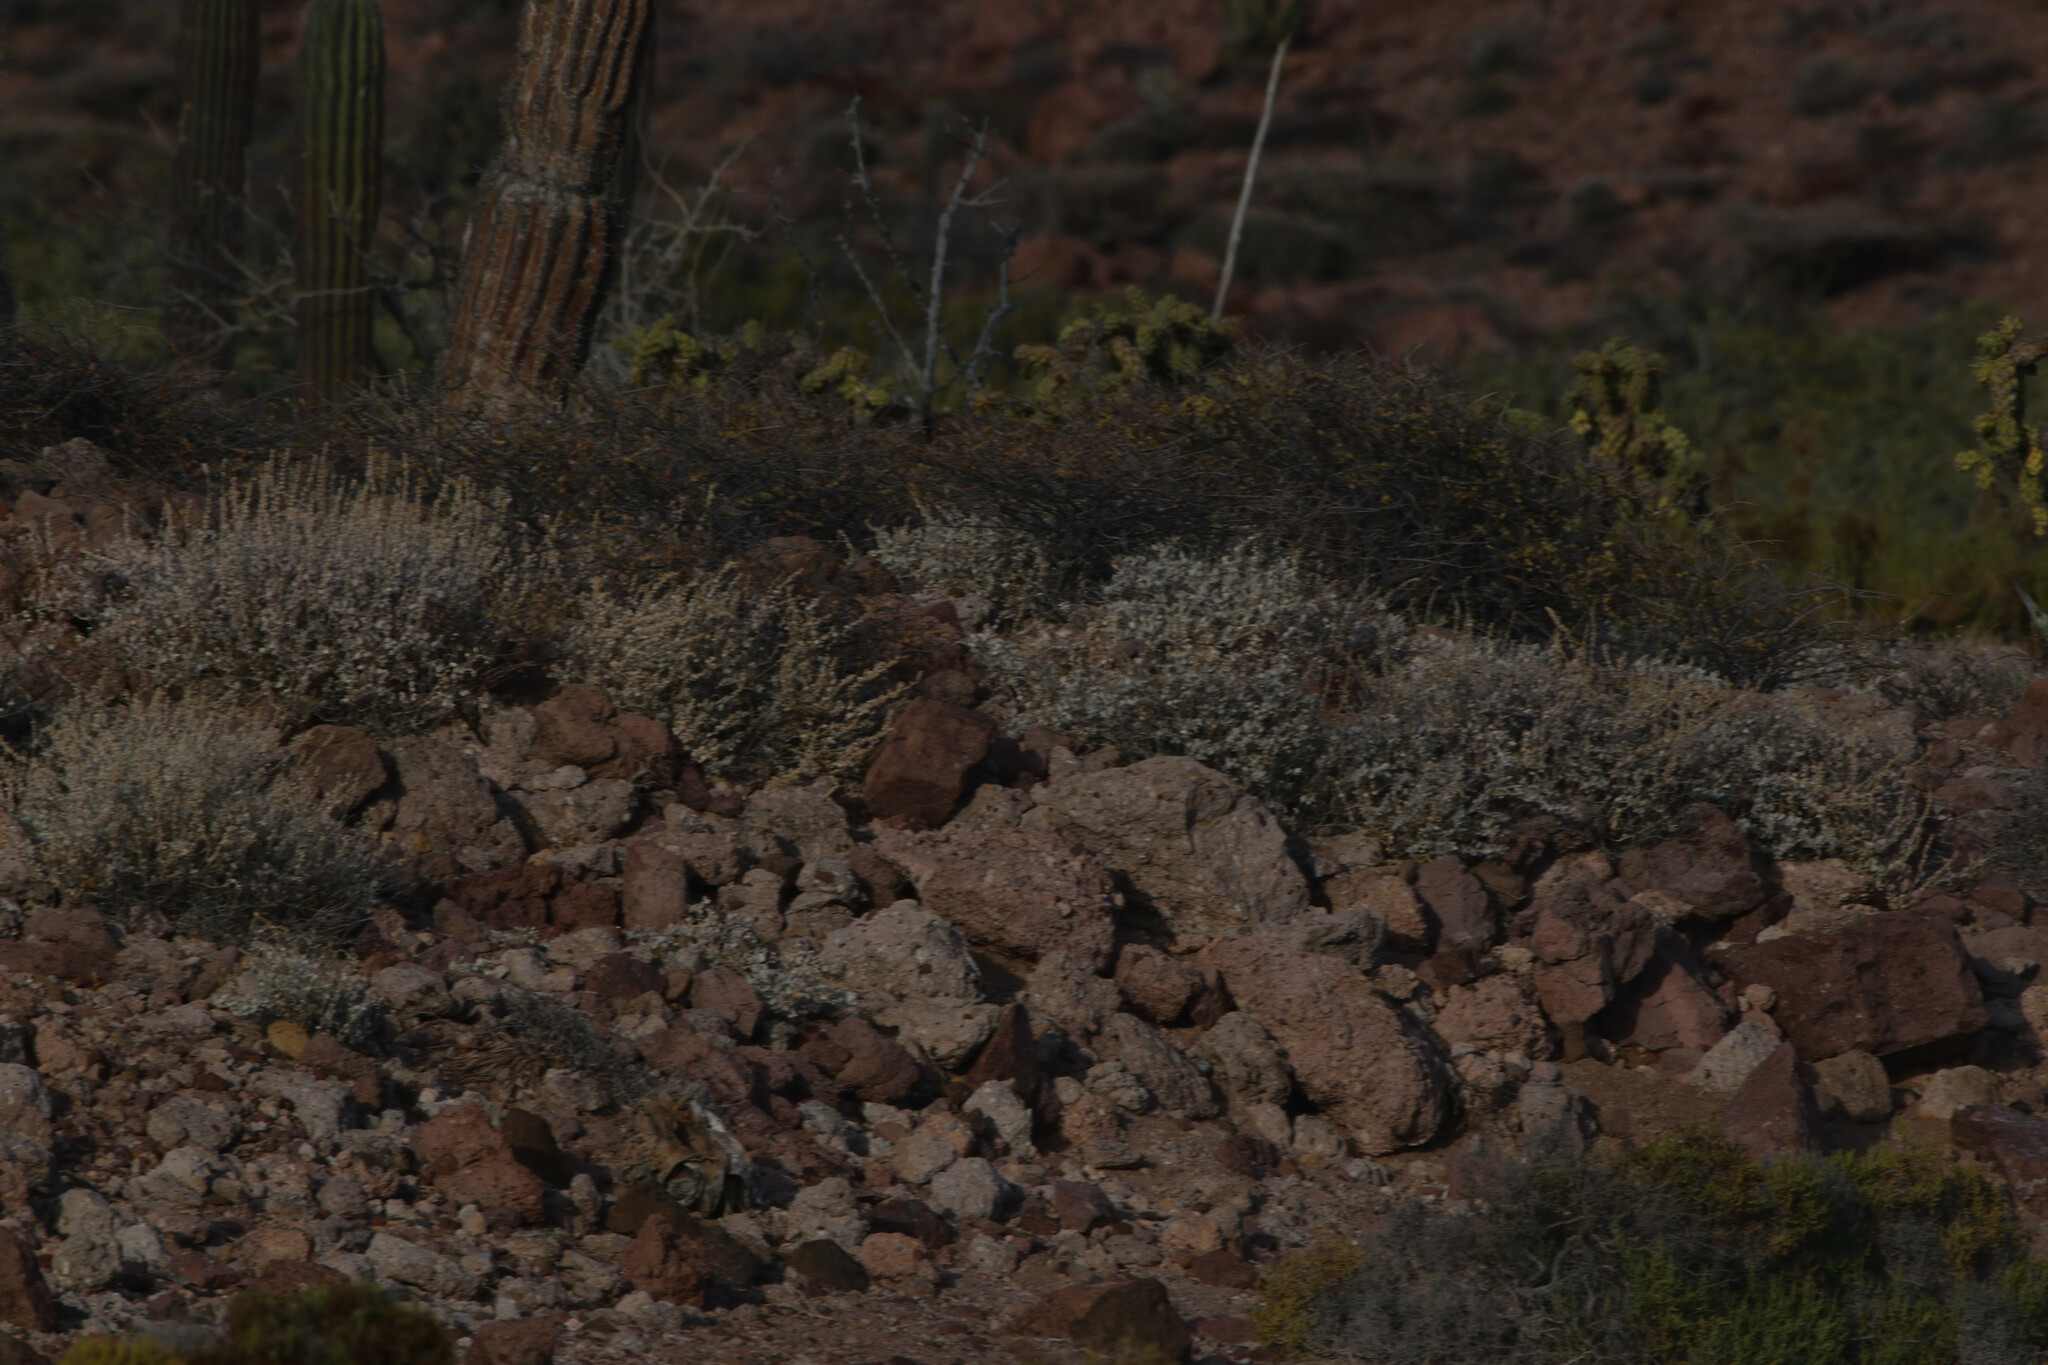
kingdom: Plantae
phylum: Tracheophyta
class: Magnoliopsida
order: Caryophyllales
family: Amaranthaceae
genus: Atriplex
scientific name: Atriplex barclayana
